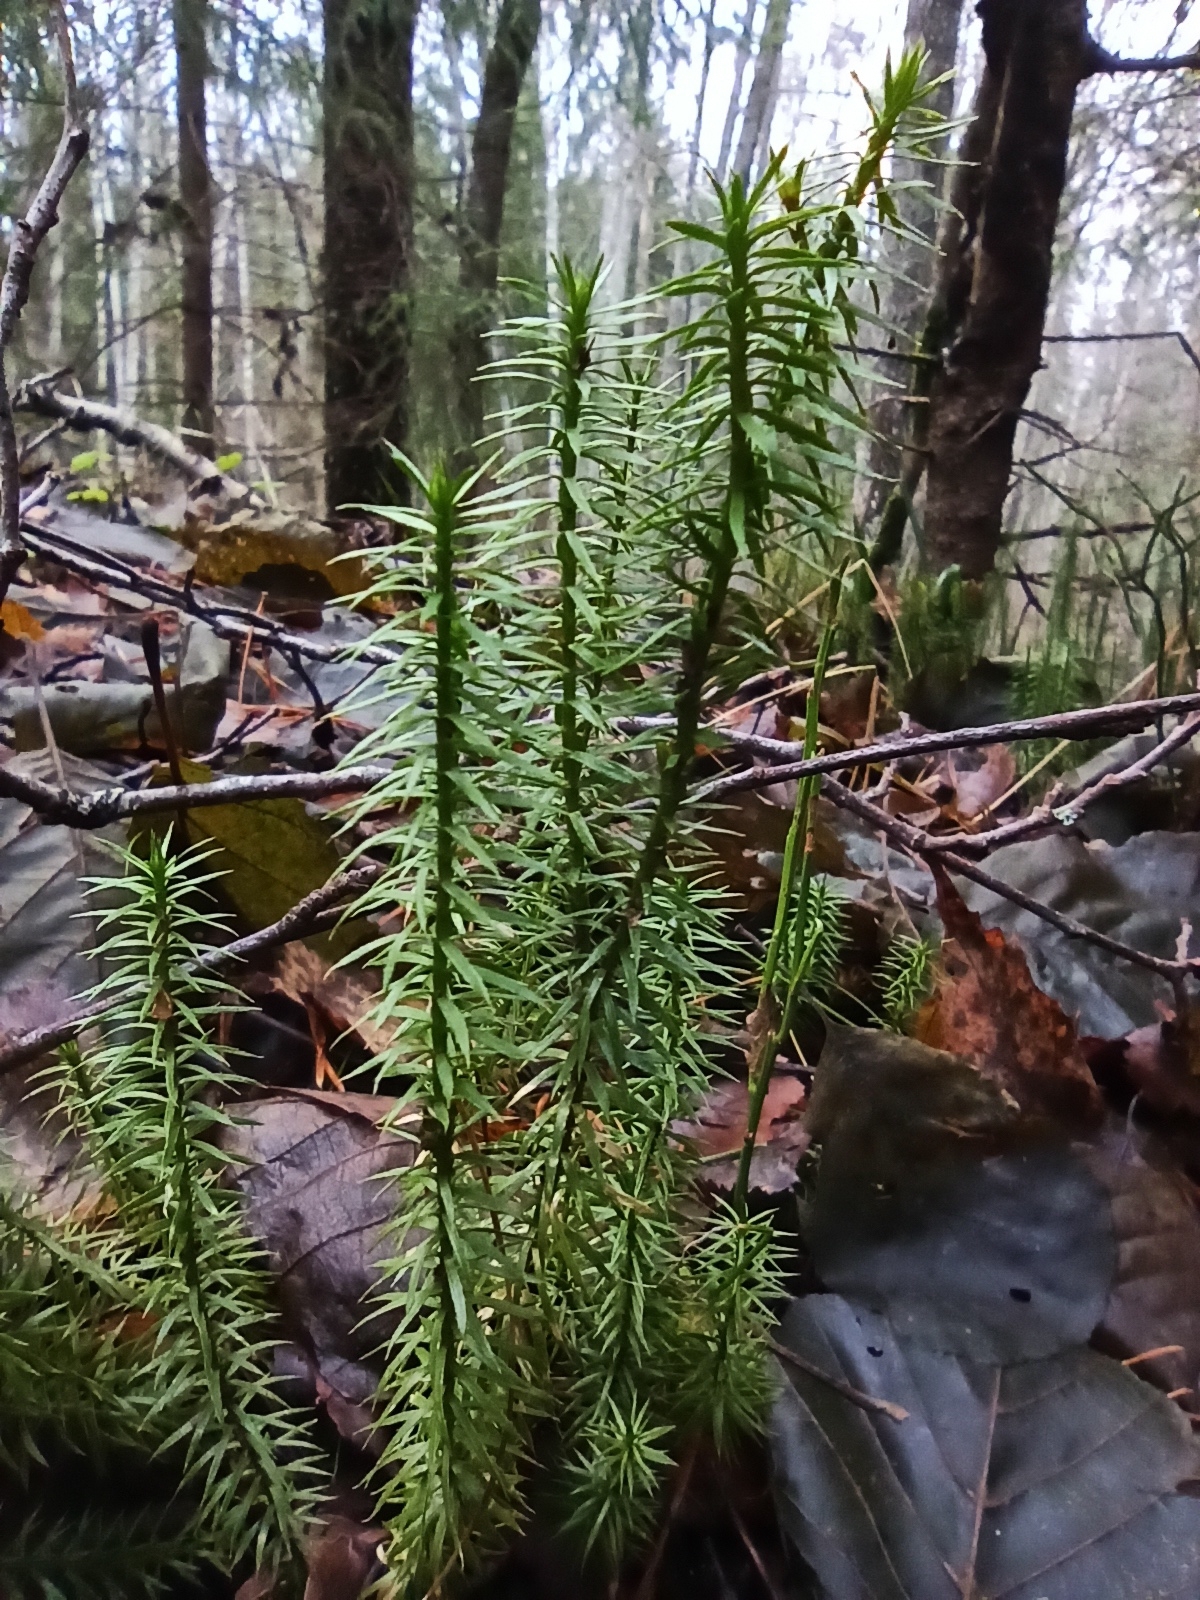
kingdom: Plantae
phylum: Tracheophyta
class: Lycopodiopsida
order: Lycopodiales
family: Lycopodiaceae
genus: Spinulum
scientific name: Spinulum annotinum
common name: Interrupted club-moss
